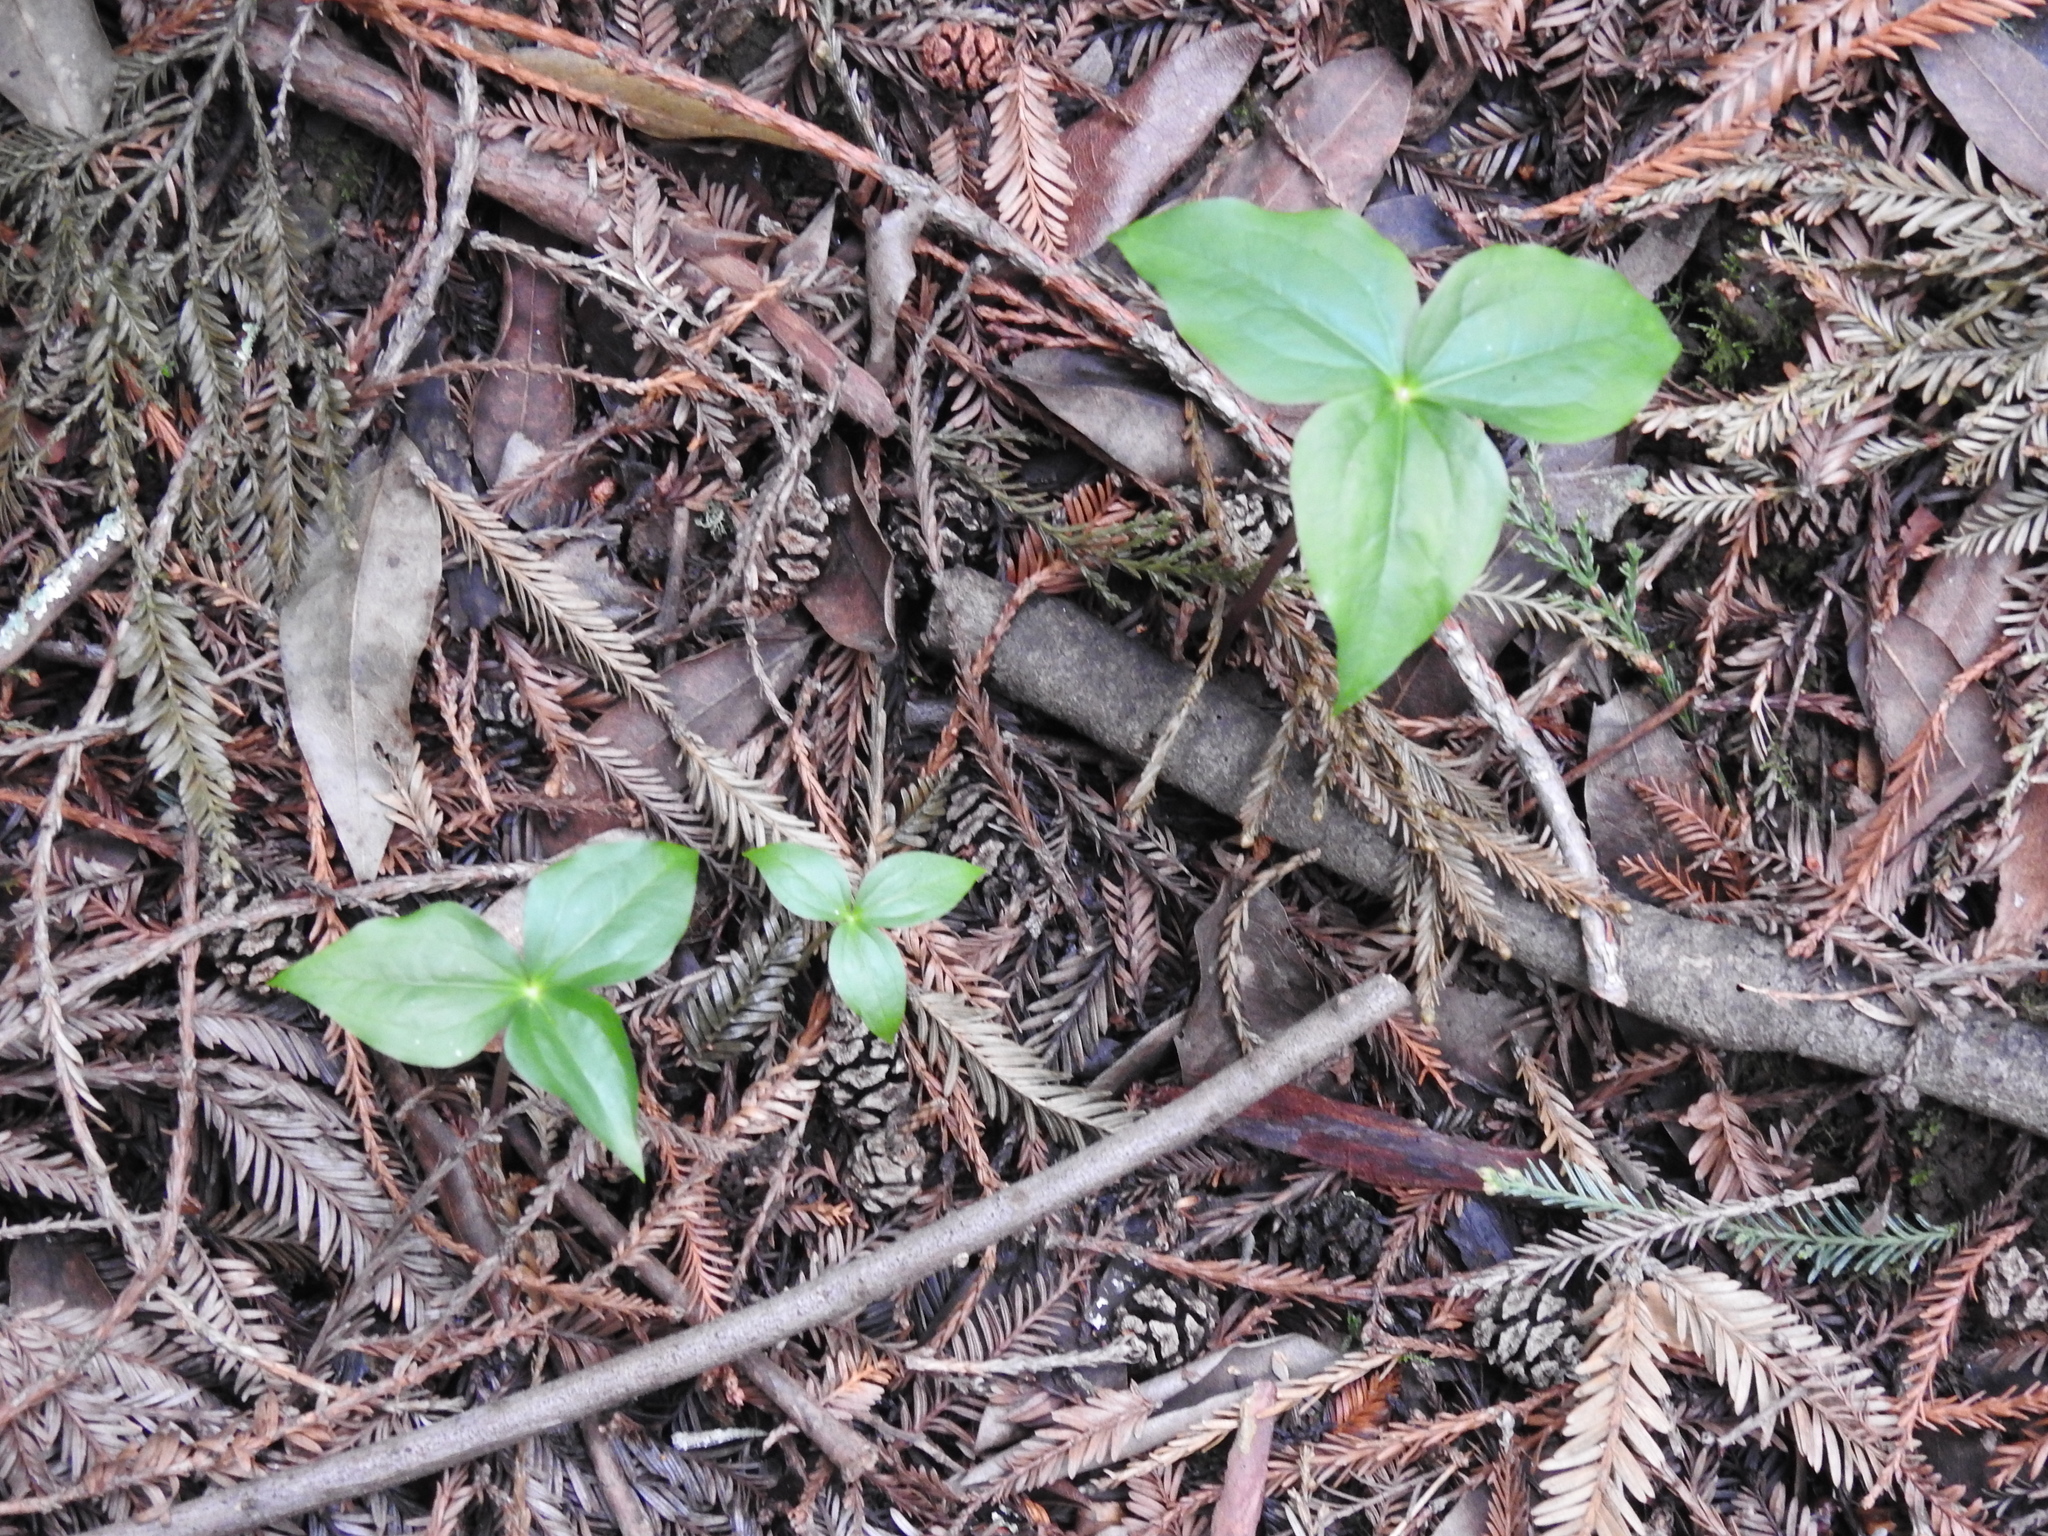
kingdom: Plantae
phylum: Tracheophyta
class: Liliopsida
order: Liliales
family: Melanthiaceae
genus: Trillium
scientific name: Trillium ovatum
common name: Pacific trillium
